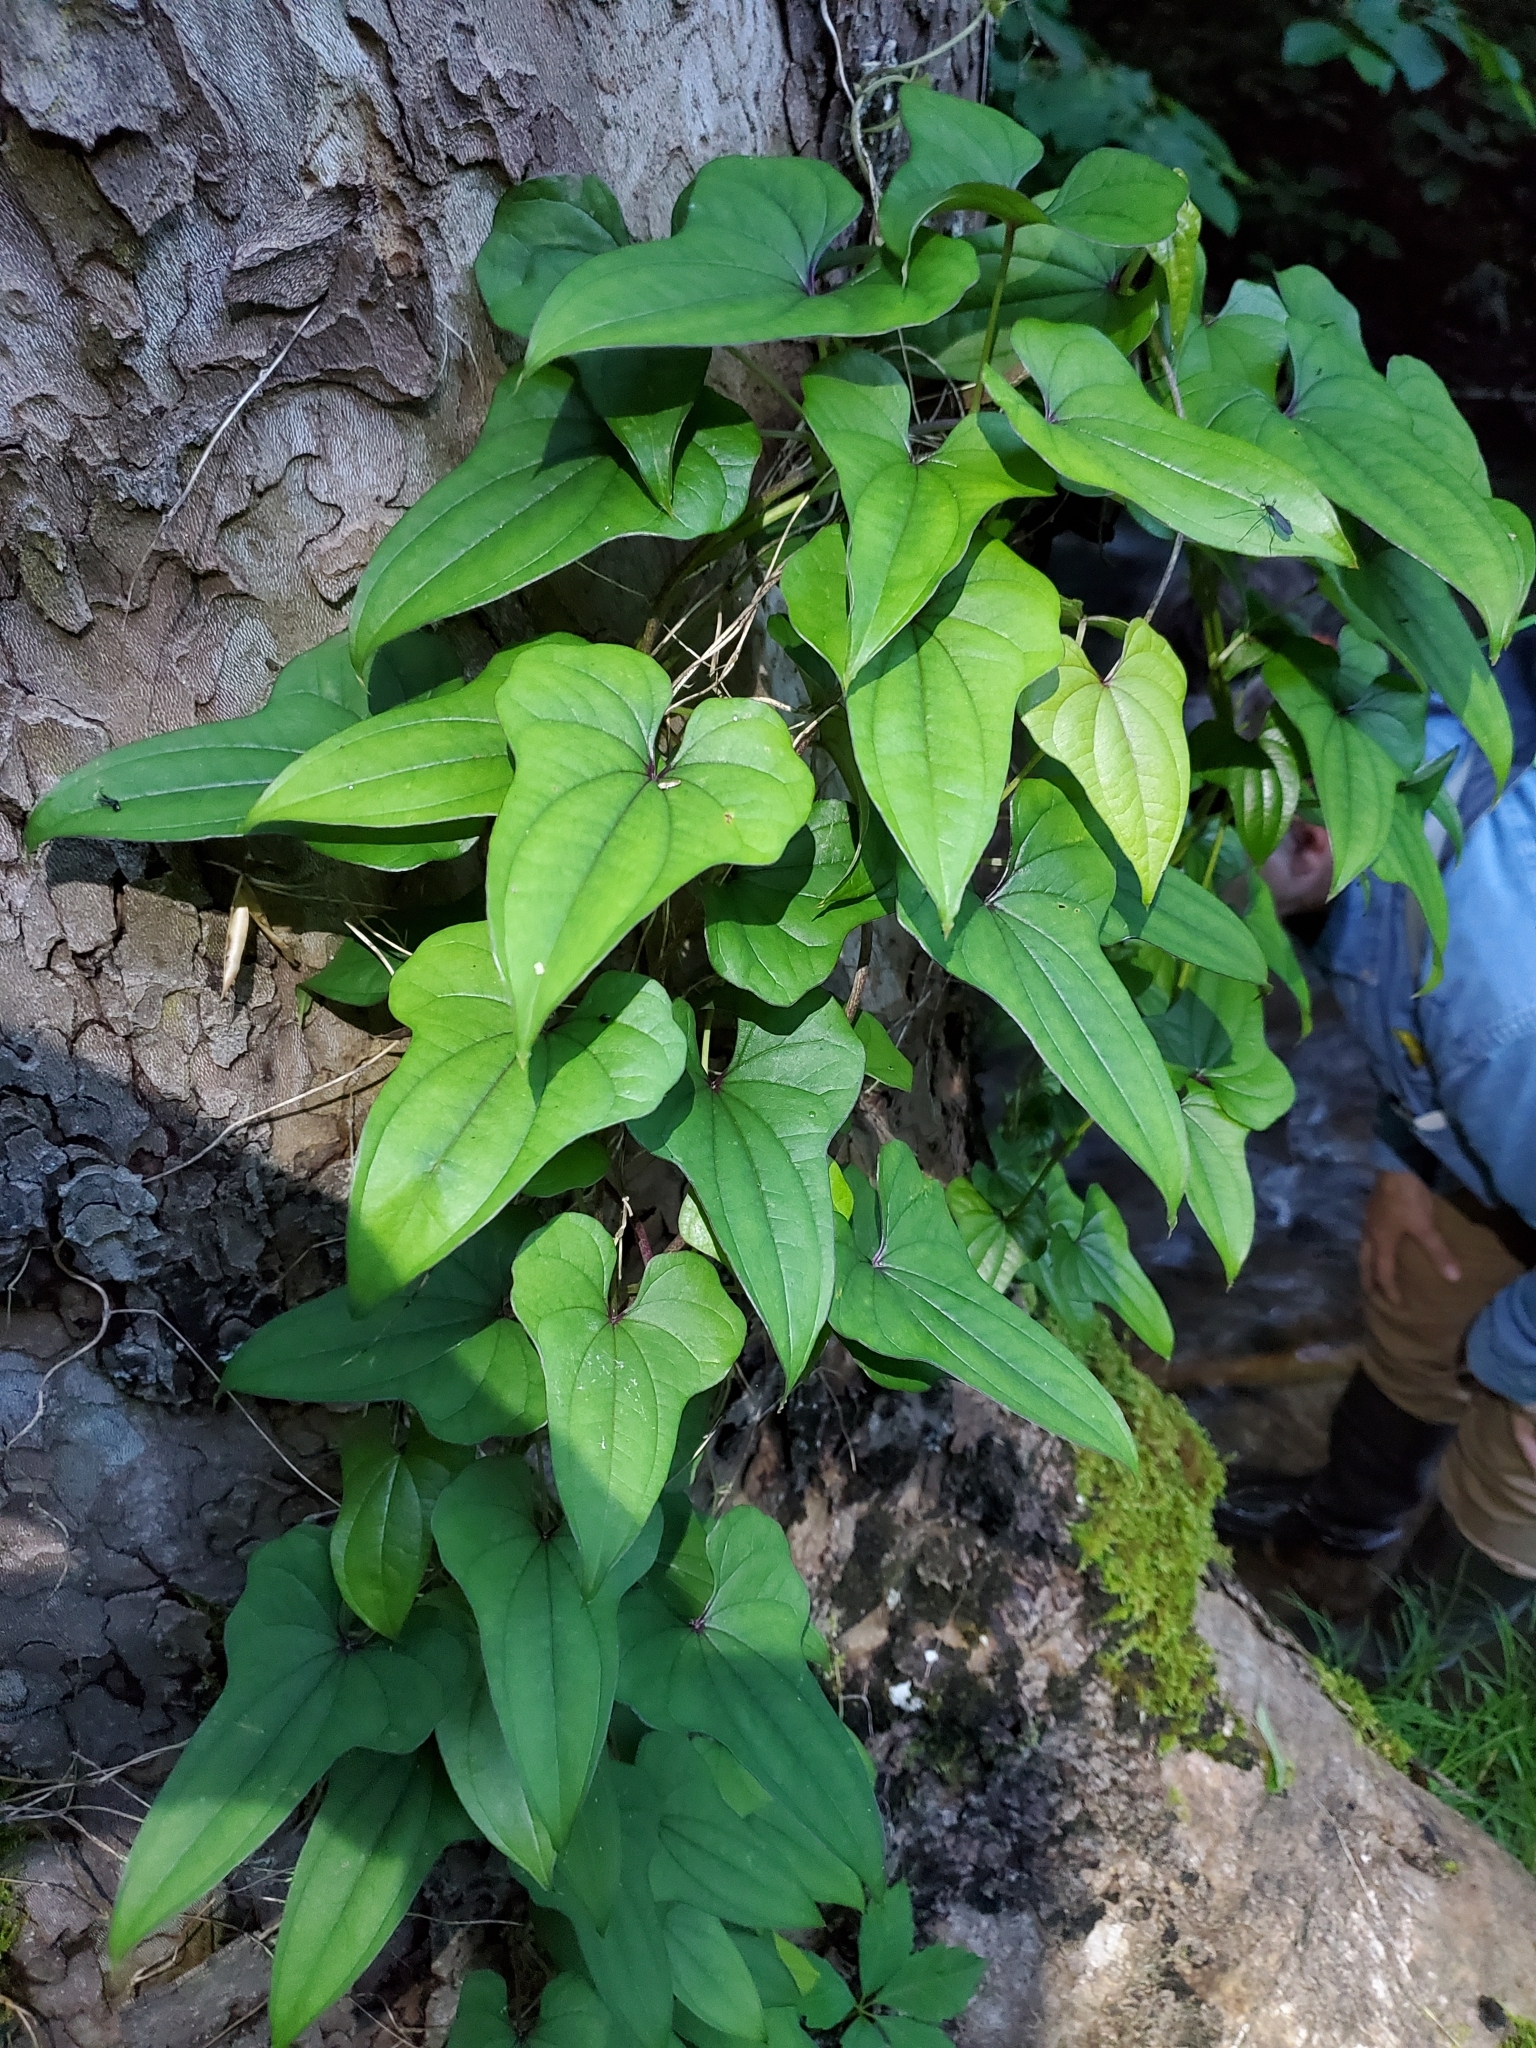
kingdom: Plantae
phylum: Tracheophyta
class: Liliopsida
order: Dioscoreales
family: Dioscoreaceae
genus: Dioscorea
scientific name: Dioscorea polystachya
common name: Chinese yam
